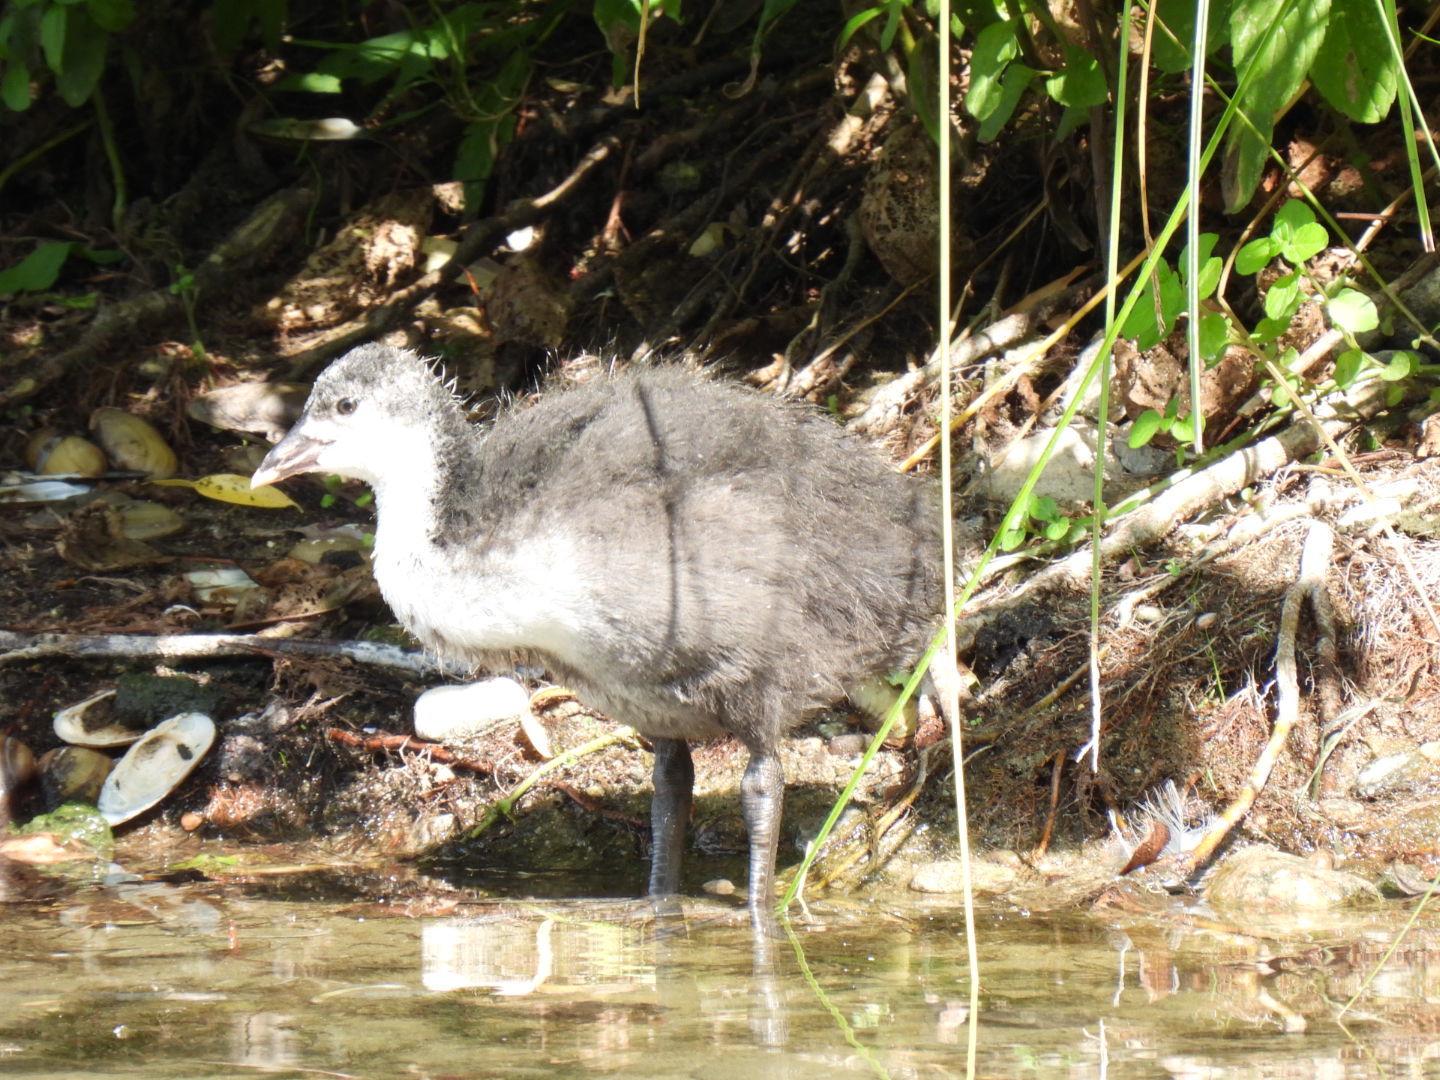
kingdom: Animalia
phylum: Chordata
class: Aves
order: Gruiformes
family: Rallidae
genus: Fulica
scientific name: Fulica atra
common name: Eurasian coot
